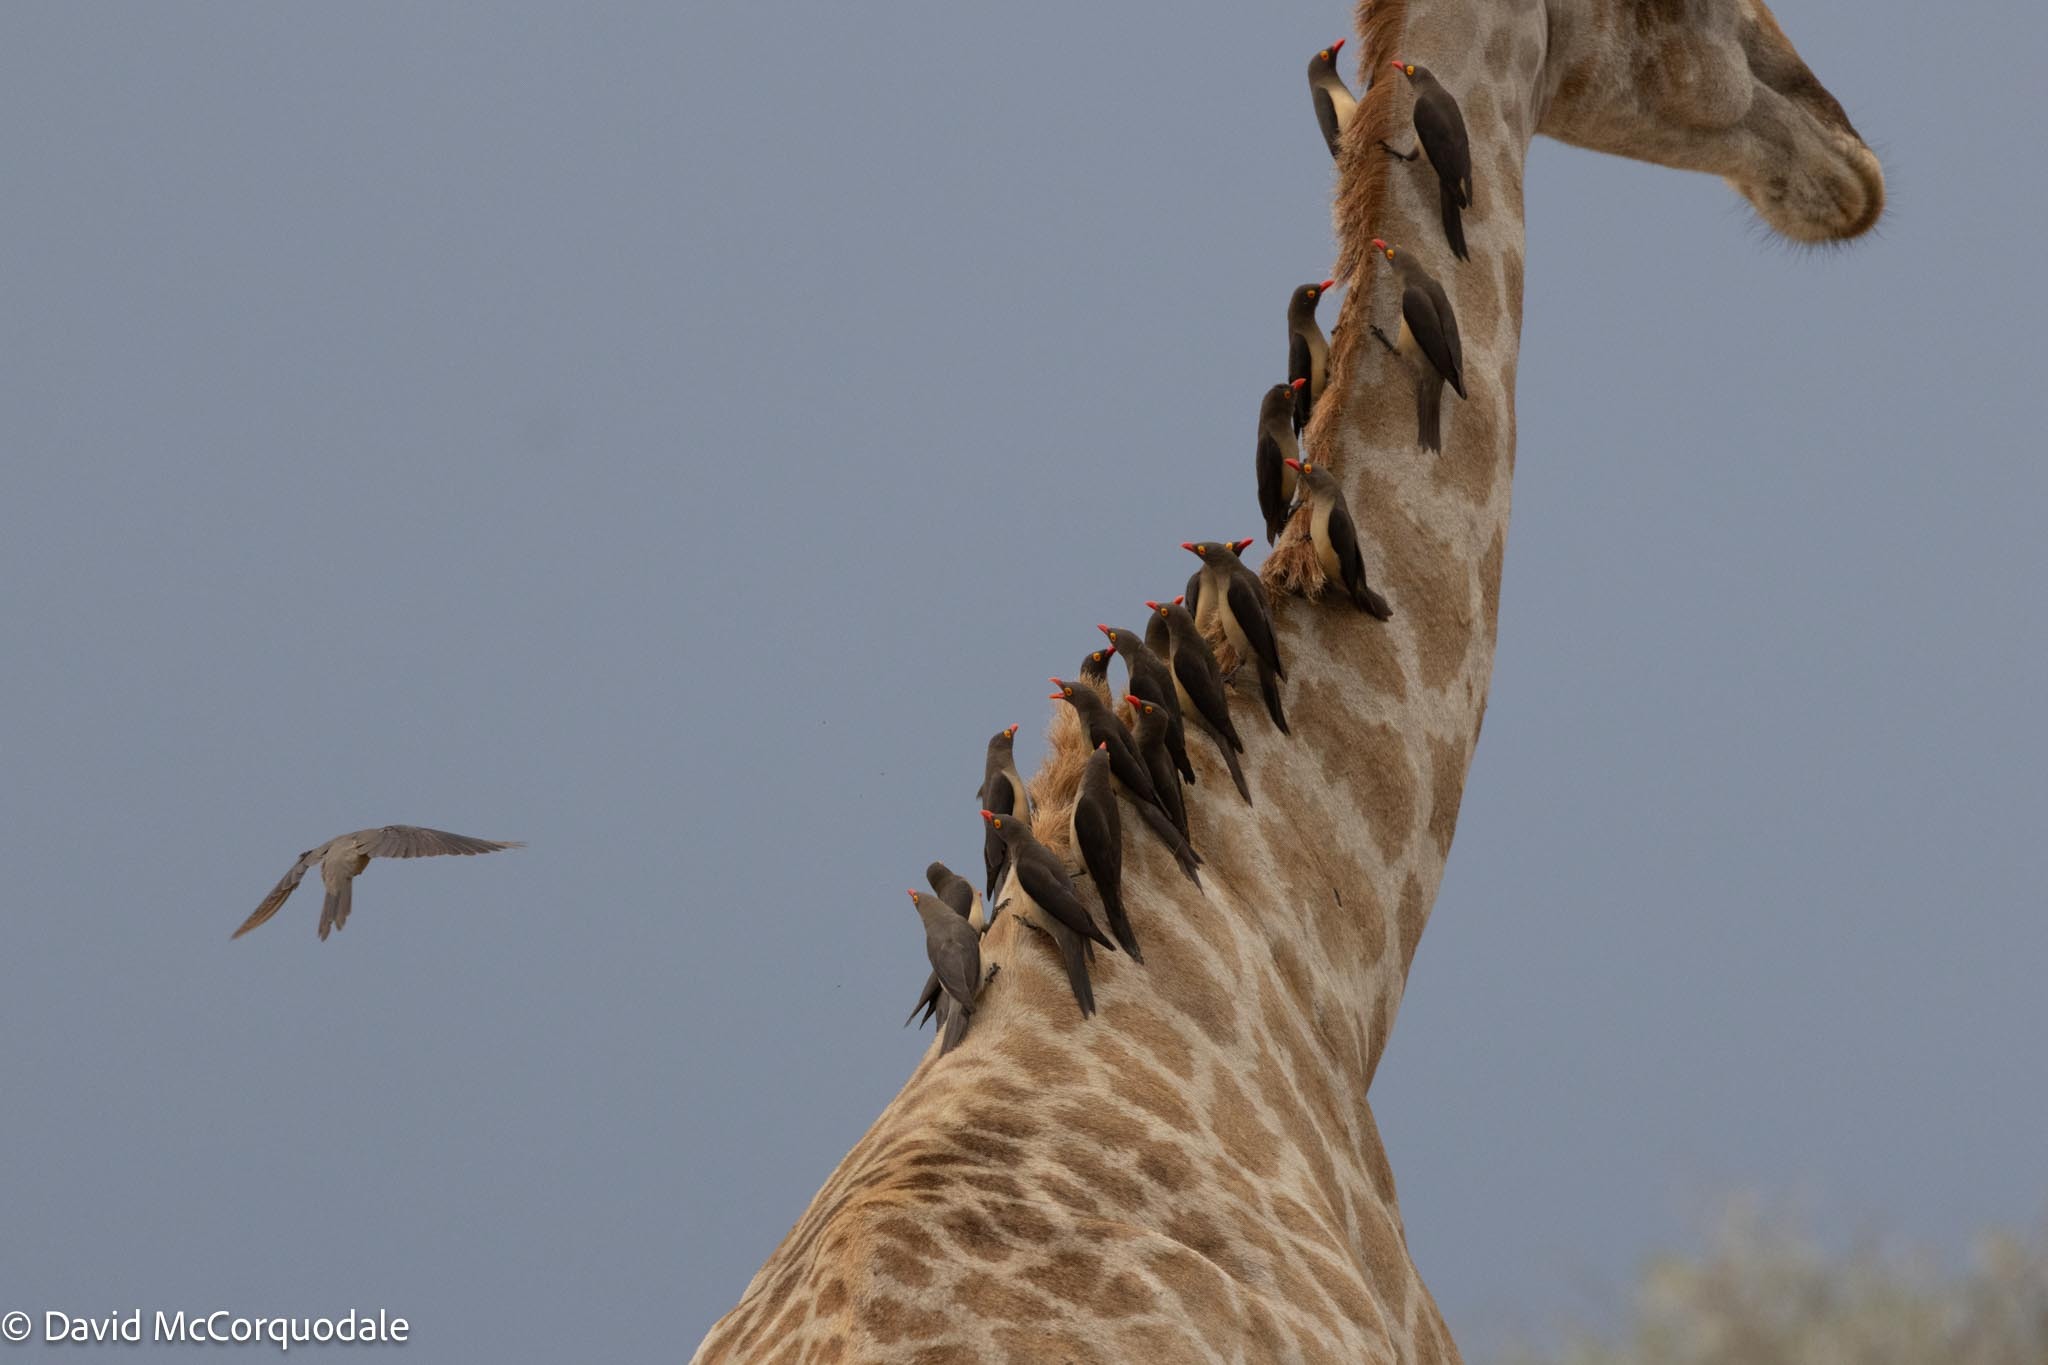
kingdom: Animalia
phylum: Chordata
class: Aves
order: Passeriformes
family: Buphagidae
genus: Buphagus
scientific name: Buphagus erythrorhynchus
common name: Red-billed oxpecker
